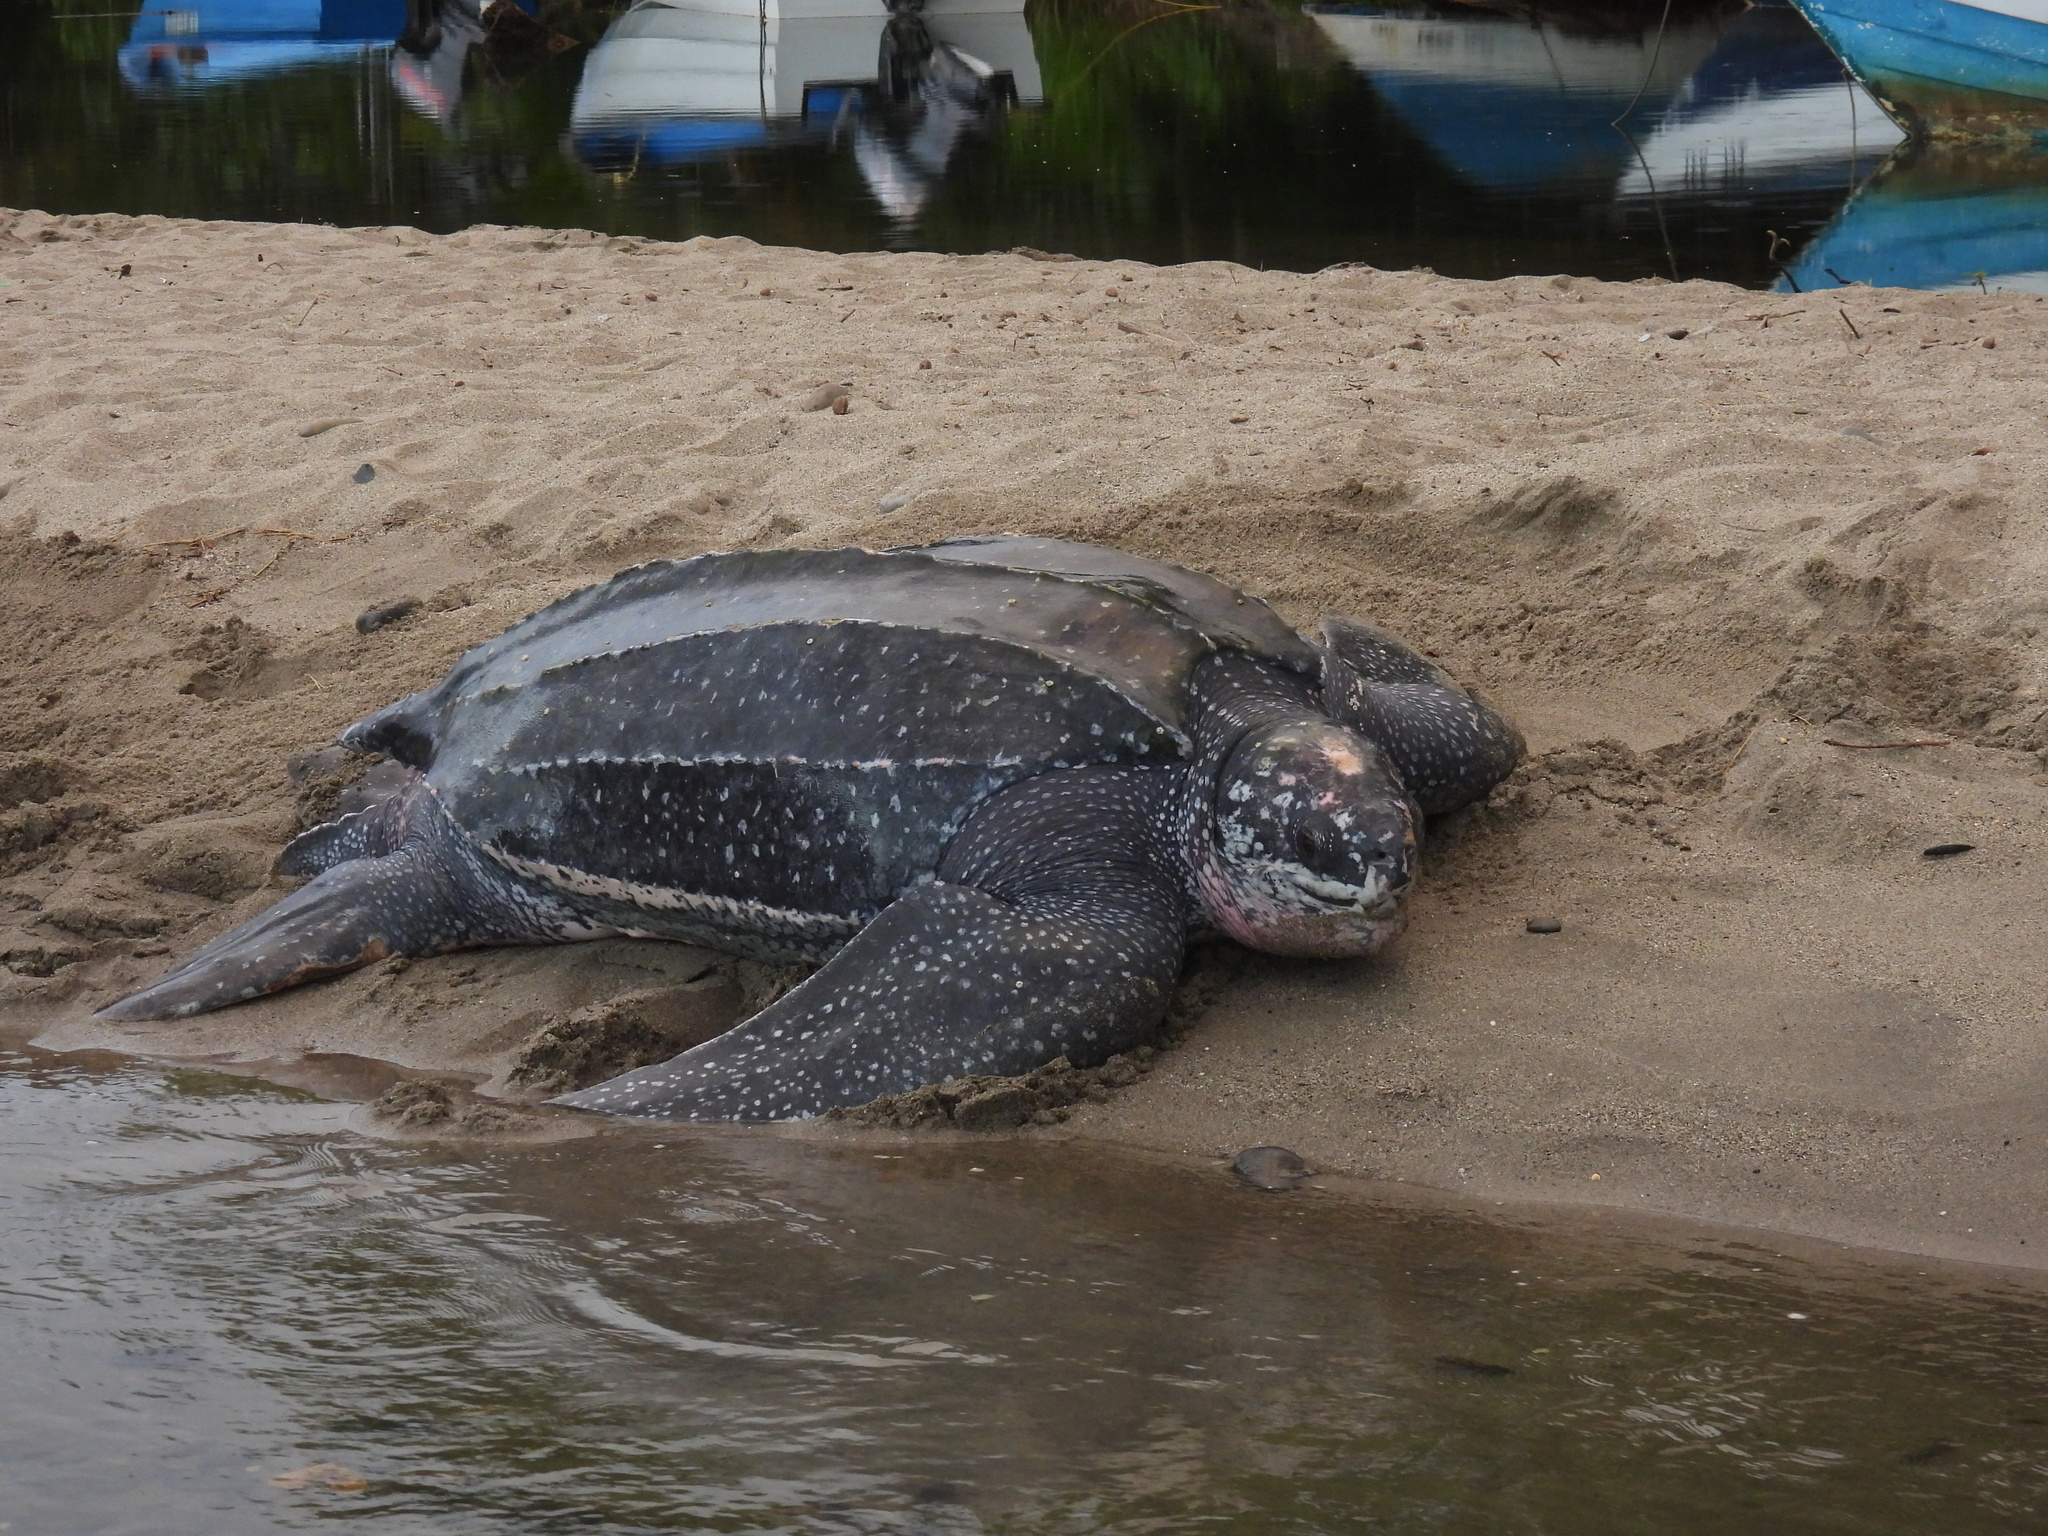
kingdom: Animalia
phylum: Chordata
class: Testudines
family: Dermochelyidae
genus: Dermochelys
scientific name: Dermochelys coriacea
